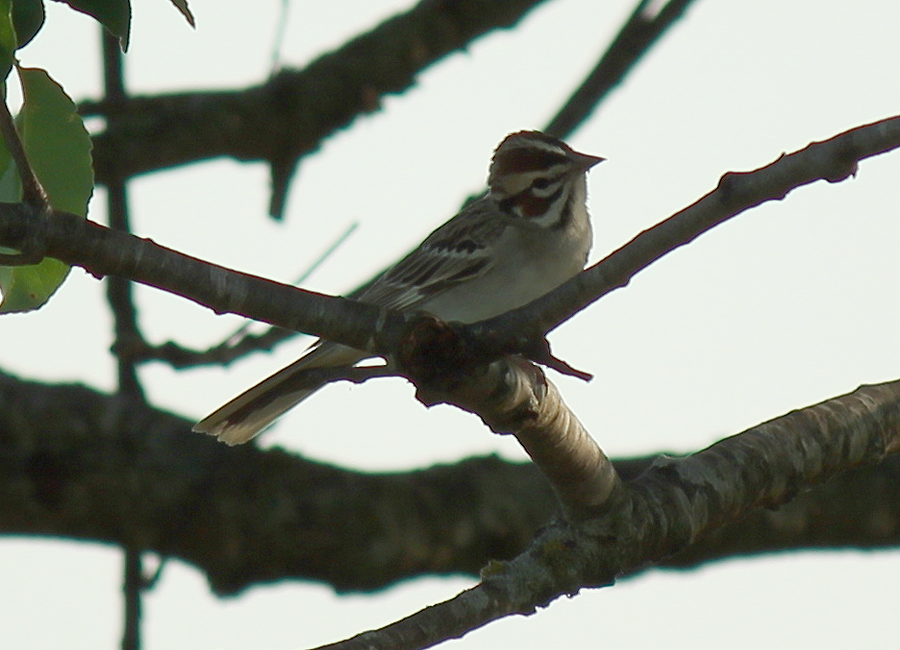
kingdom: Animalia
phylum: Chordata
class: Aves
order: Passeriformes
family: Passerellidae
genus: Chondestes
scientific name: Chondestes grammacus
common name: Lark sparrow
